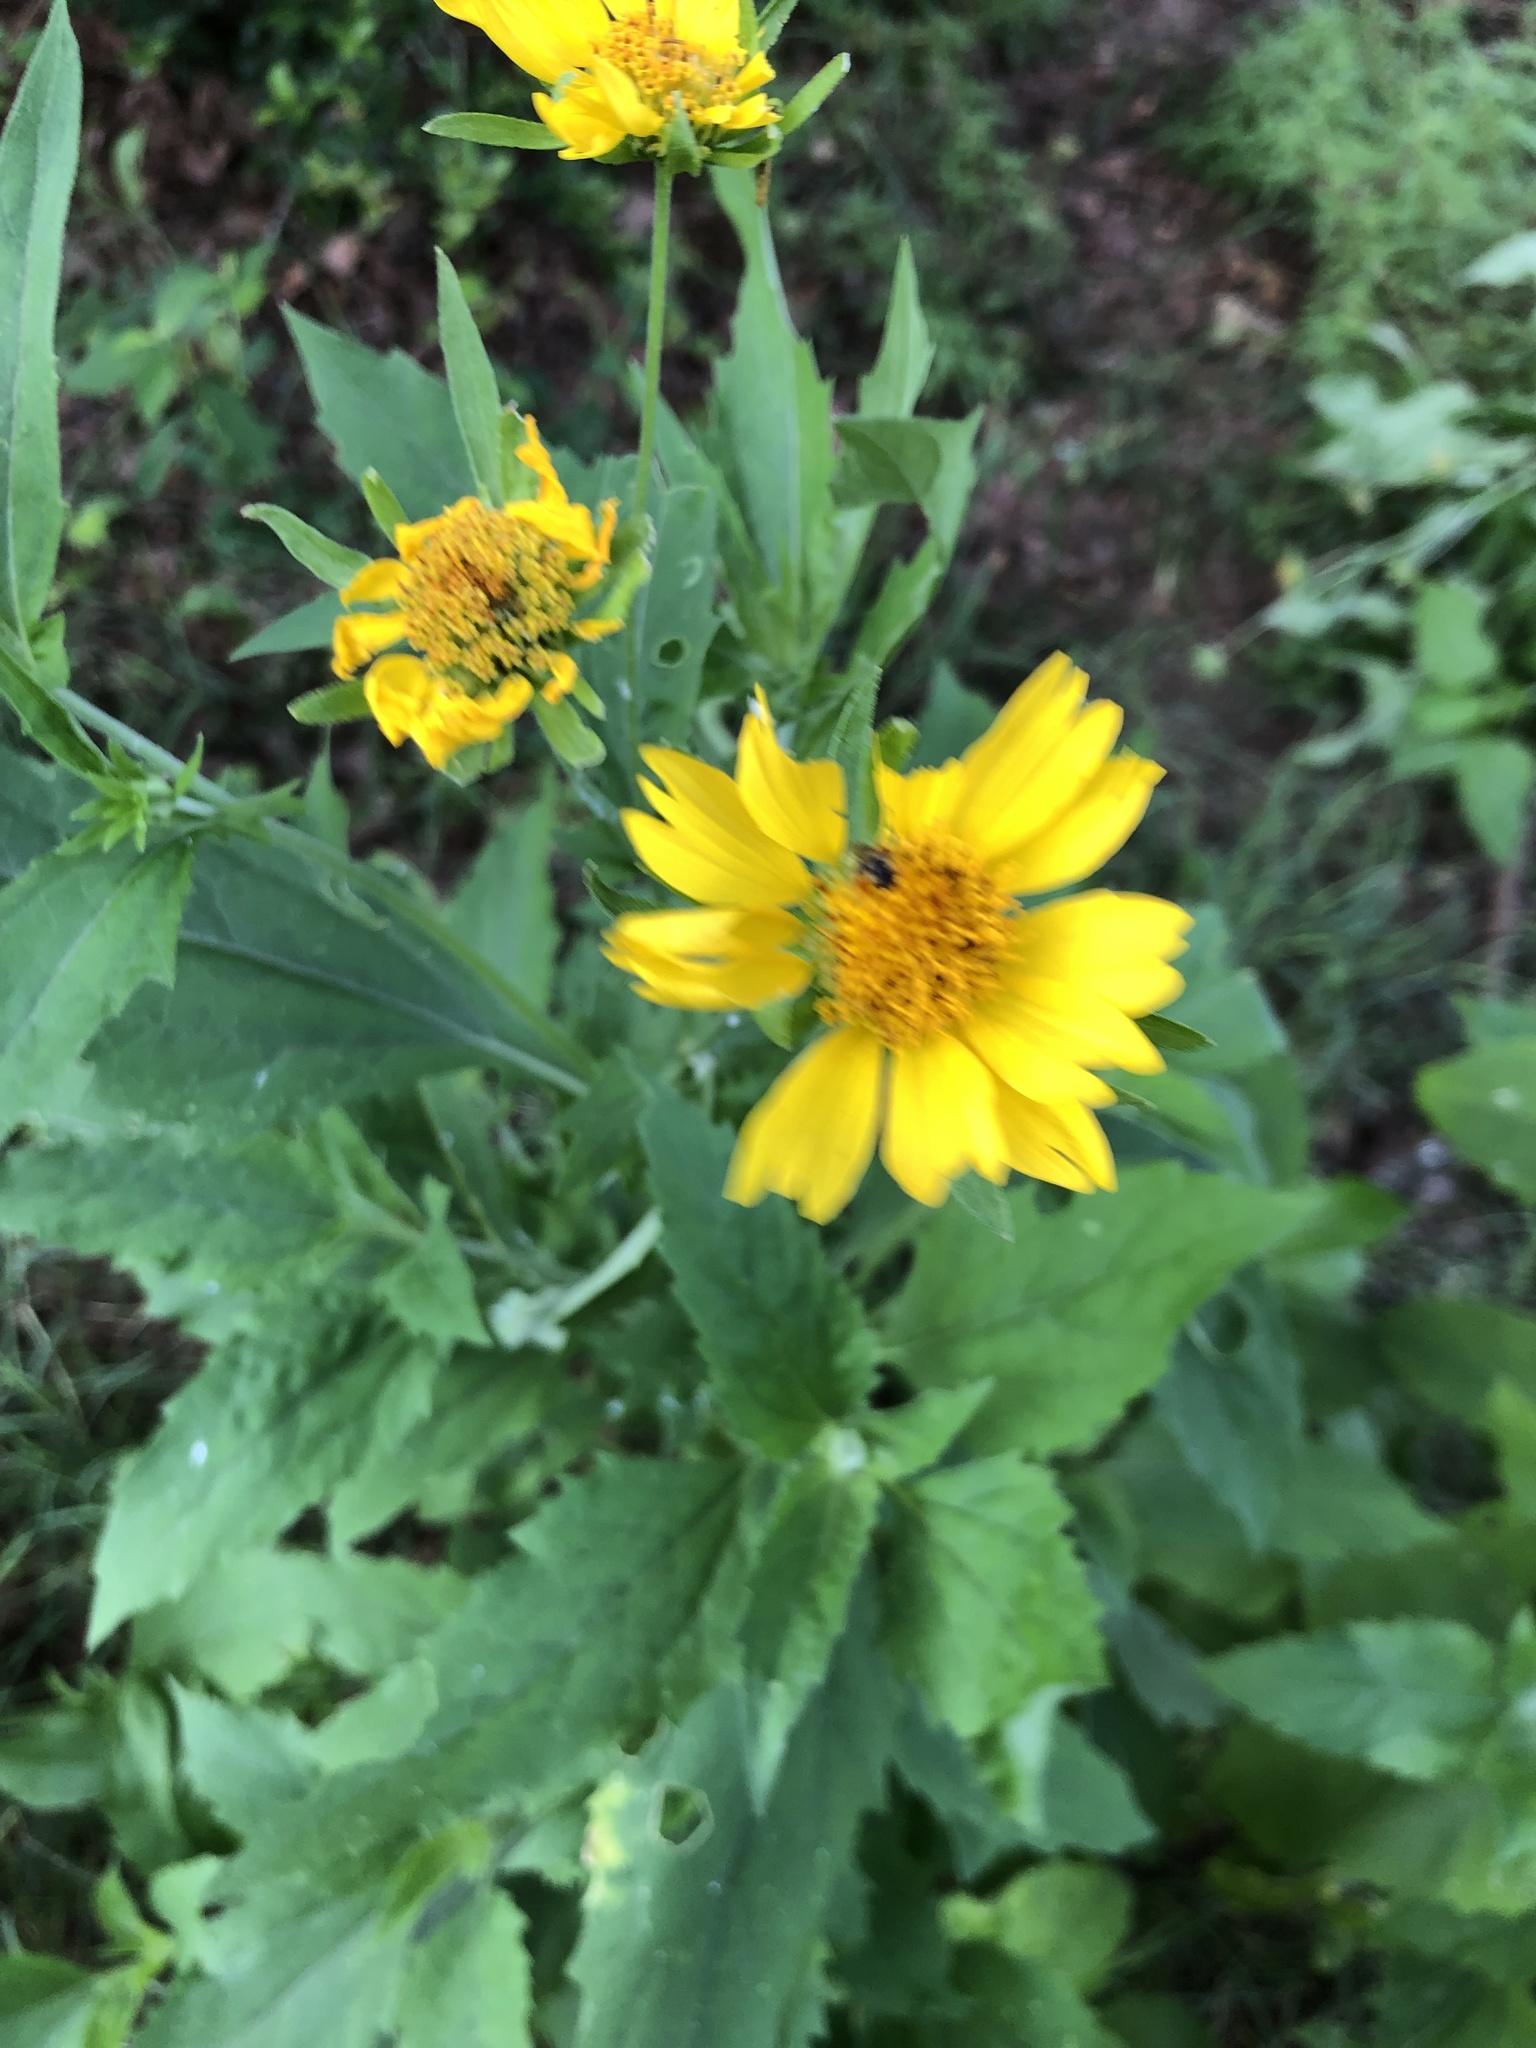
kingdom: Plantae
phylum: Tracheophyta
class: Magnoliopsida
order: Asterales
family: Asteraceae
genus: Verbesina
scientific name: Verbesina encelioides
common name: Golden crownbeard
